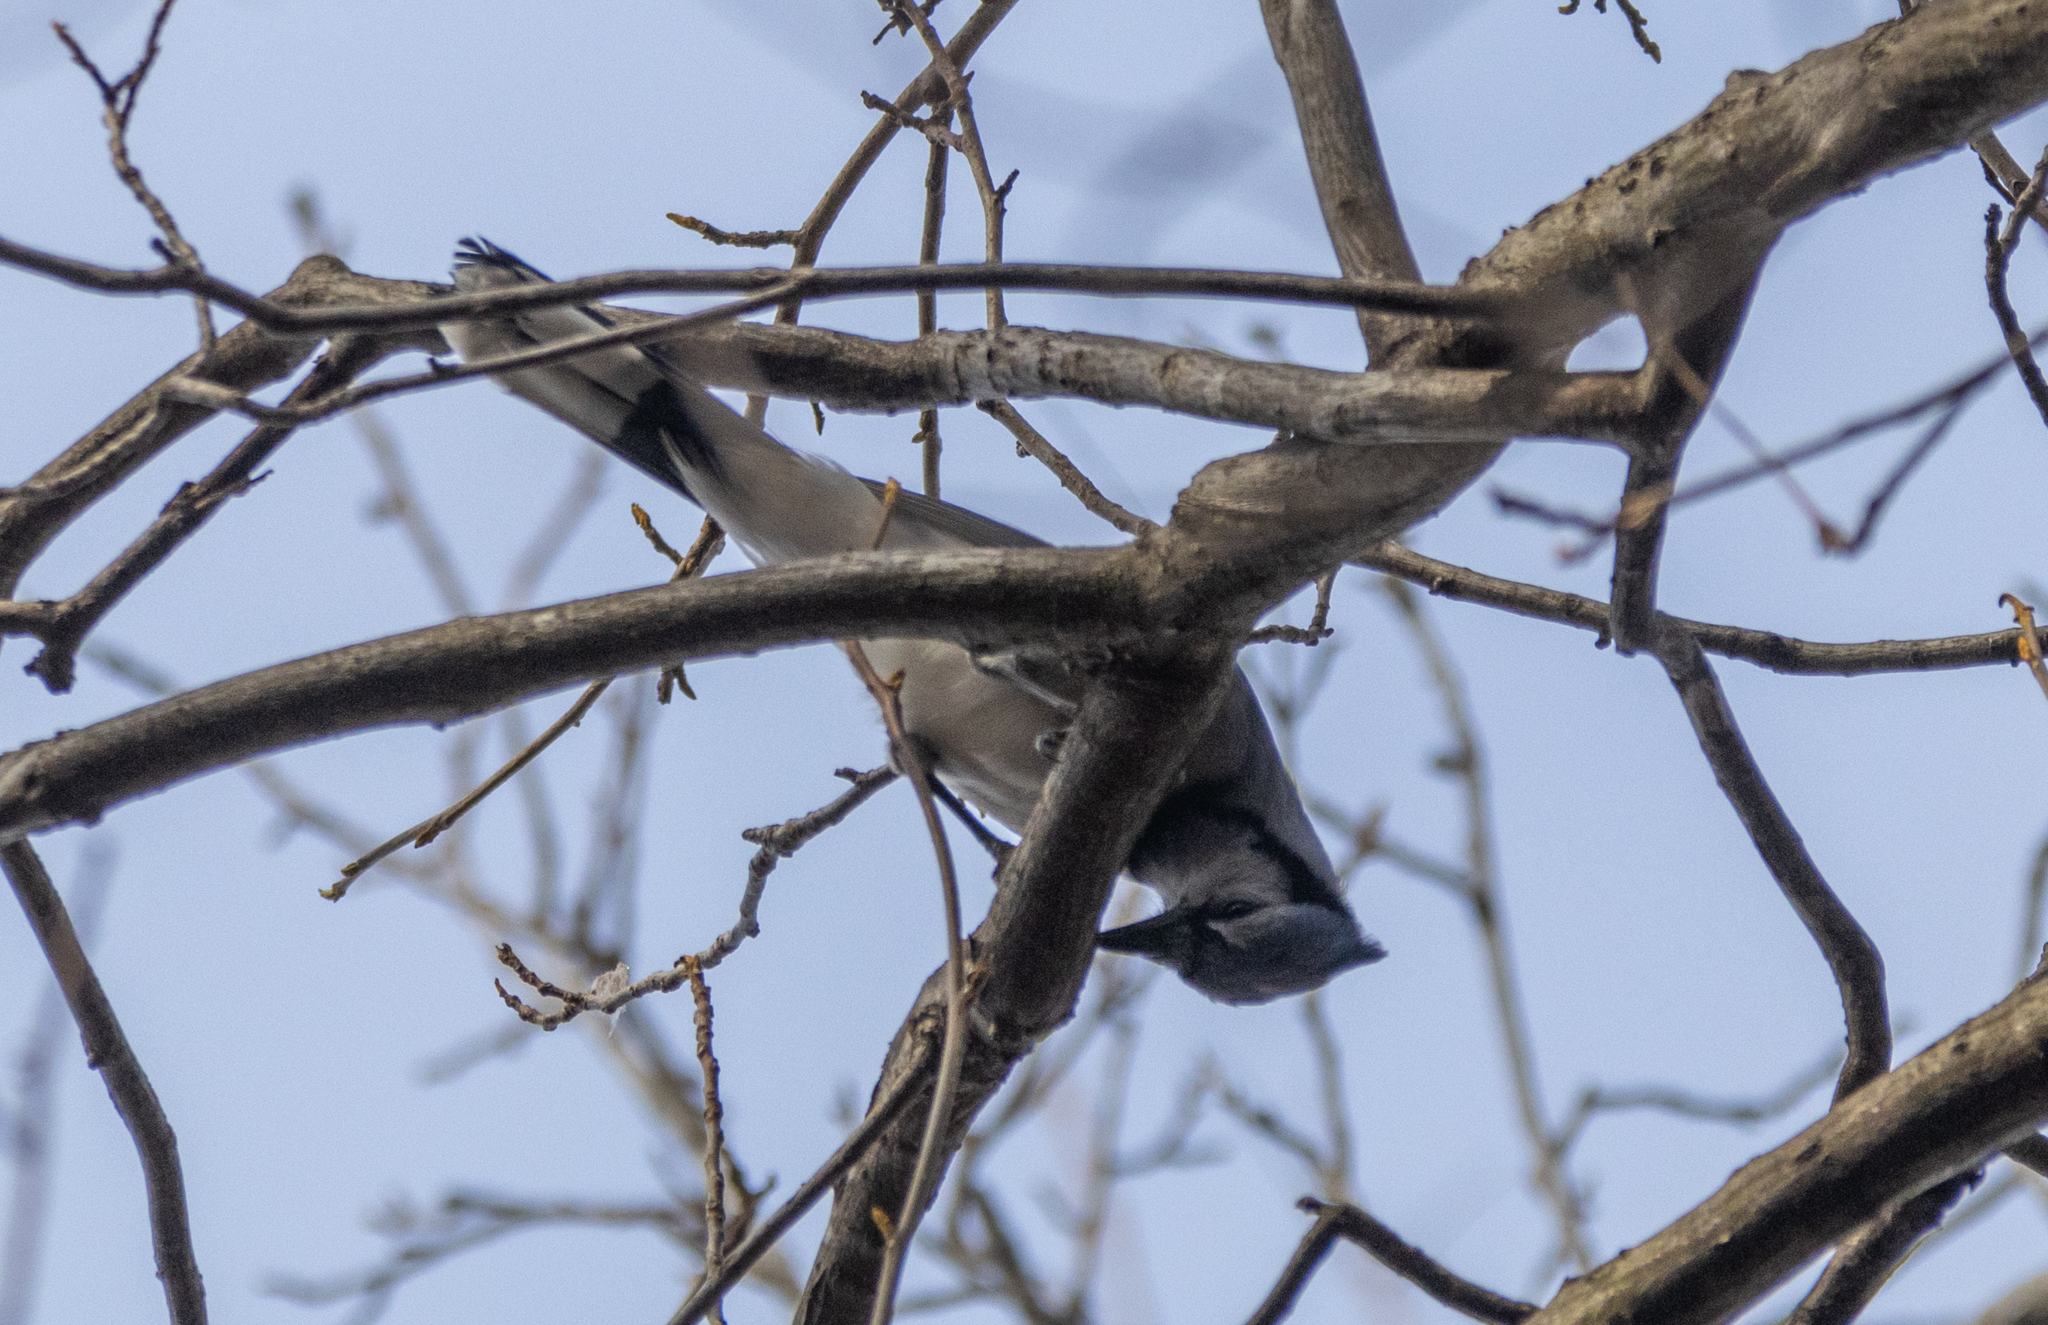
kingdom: Animalia
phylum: Chordata
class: Aves
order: Passeriformes
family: Corvidae
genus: Cyanocitta
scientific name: Cyanocitta cristata
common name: Blue jay
